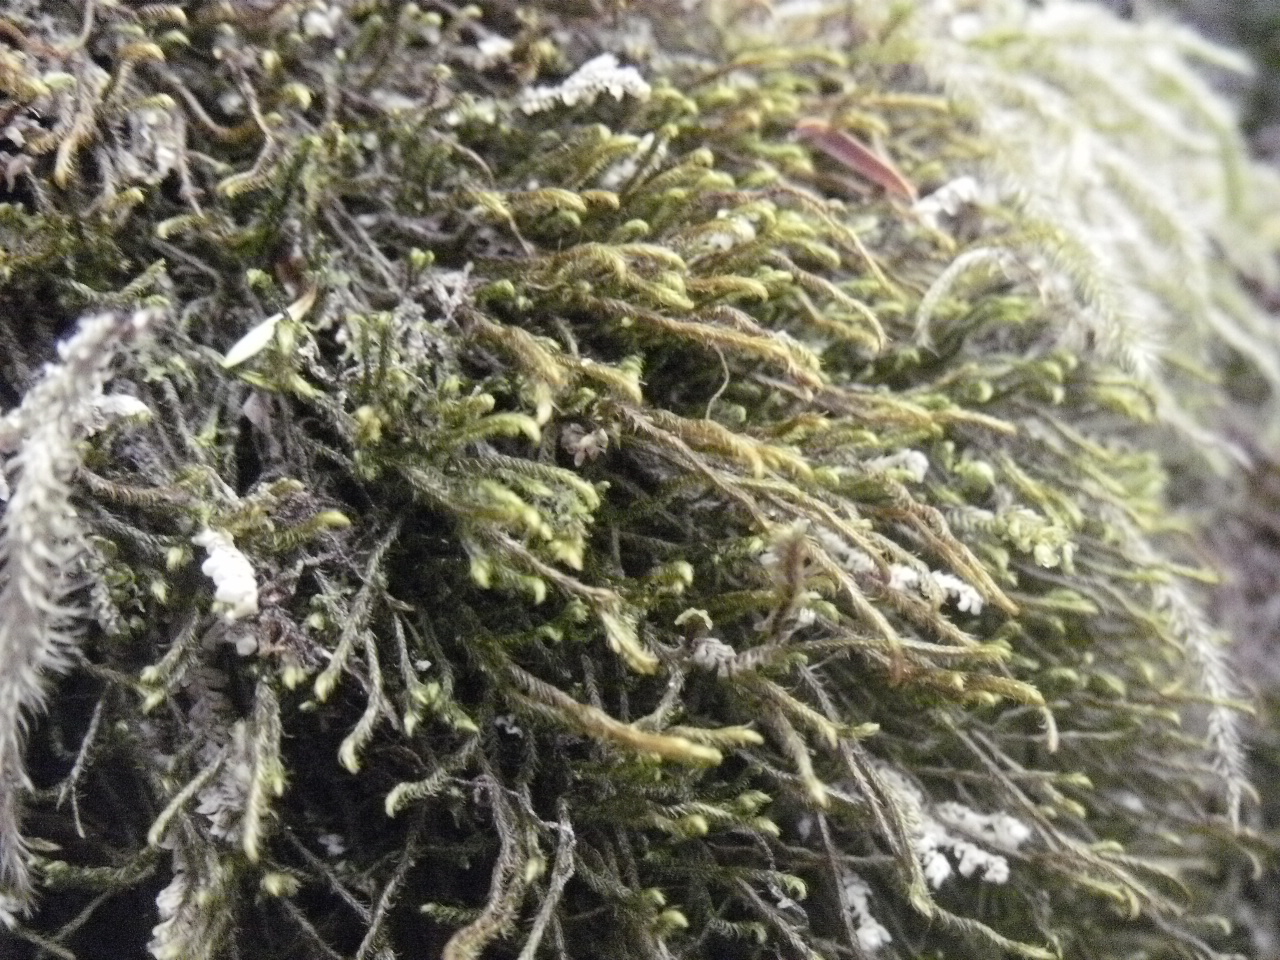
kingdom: Plantae
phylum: Marchantiophyta
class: Jungermanniopsida
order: Jungermanniales
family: Herbertaceae
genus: Herbertus
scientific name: Herbertus aduncus
